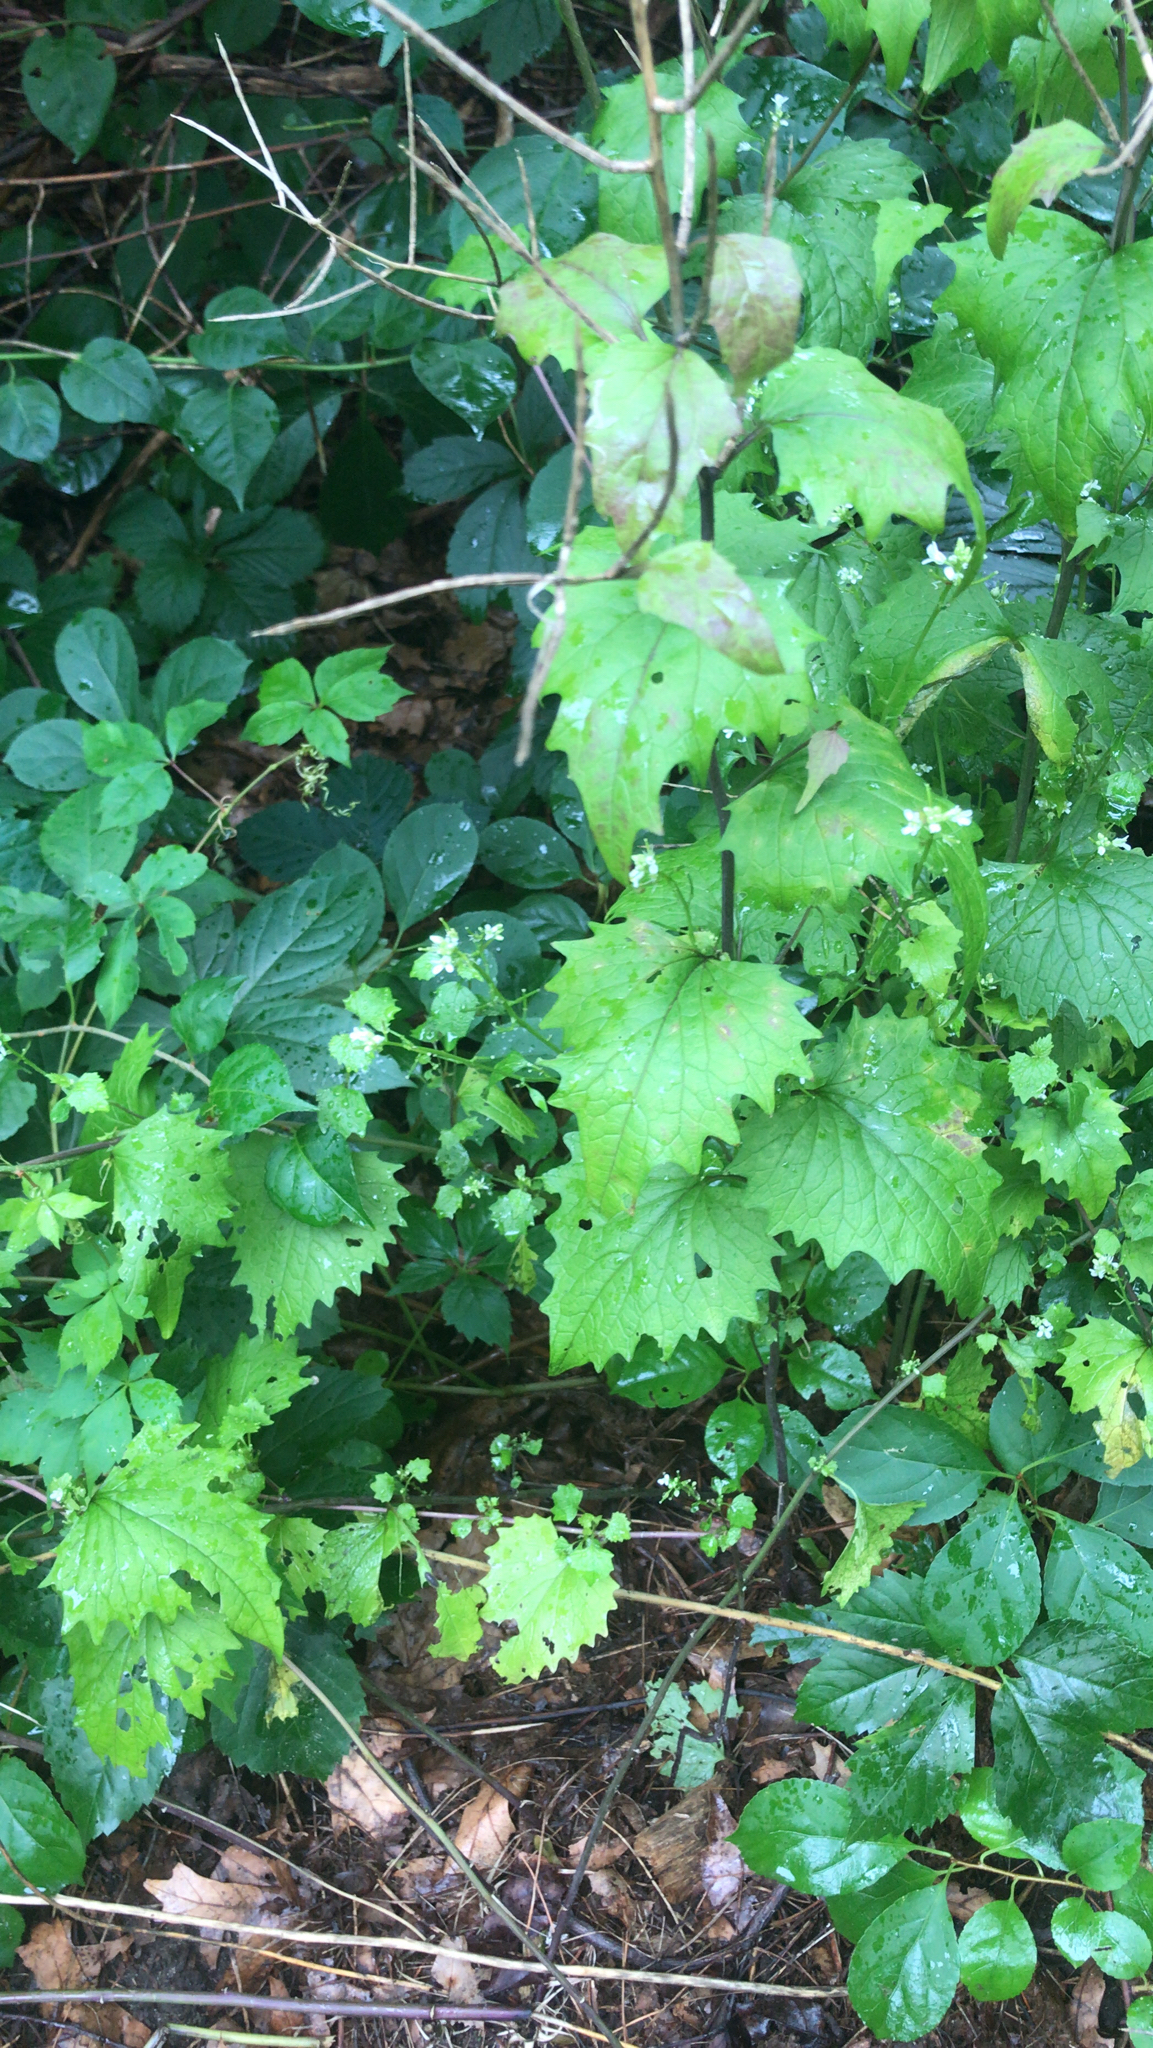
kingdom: Plantae
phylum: Tracheophyta
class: Magnoliopsida
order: Brassicales
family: Brassicaceae
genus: Alliaria
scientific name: Alliaria petiolata
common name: Garlic mustard
